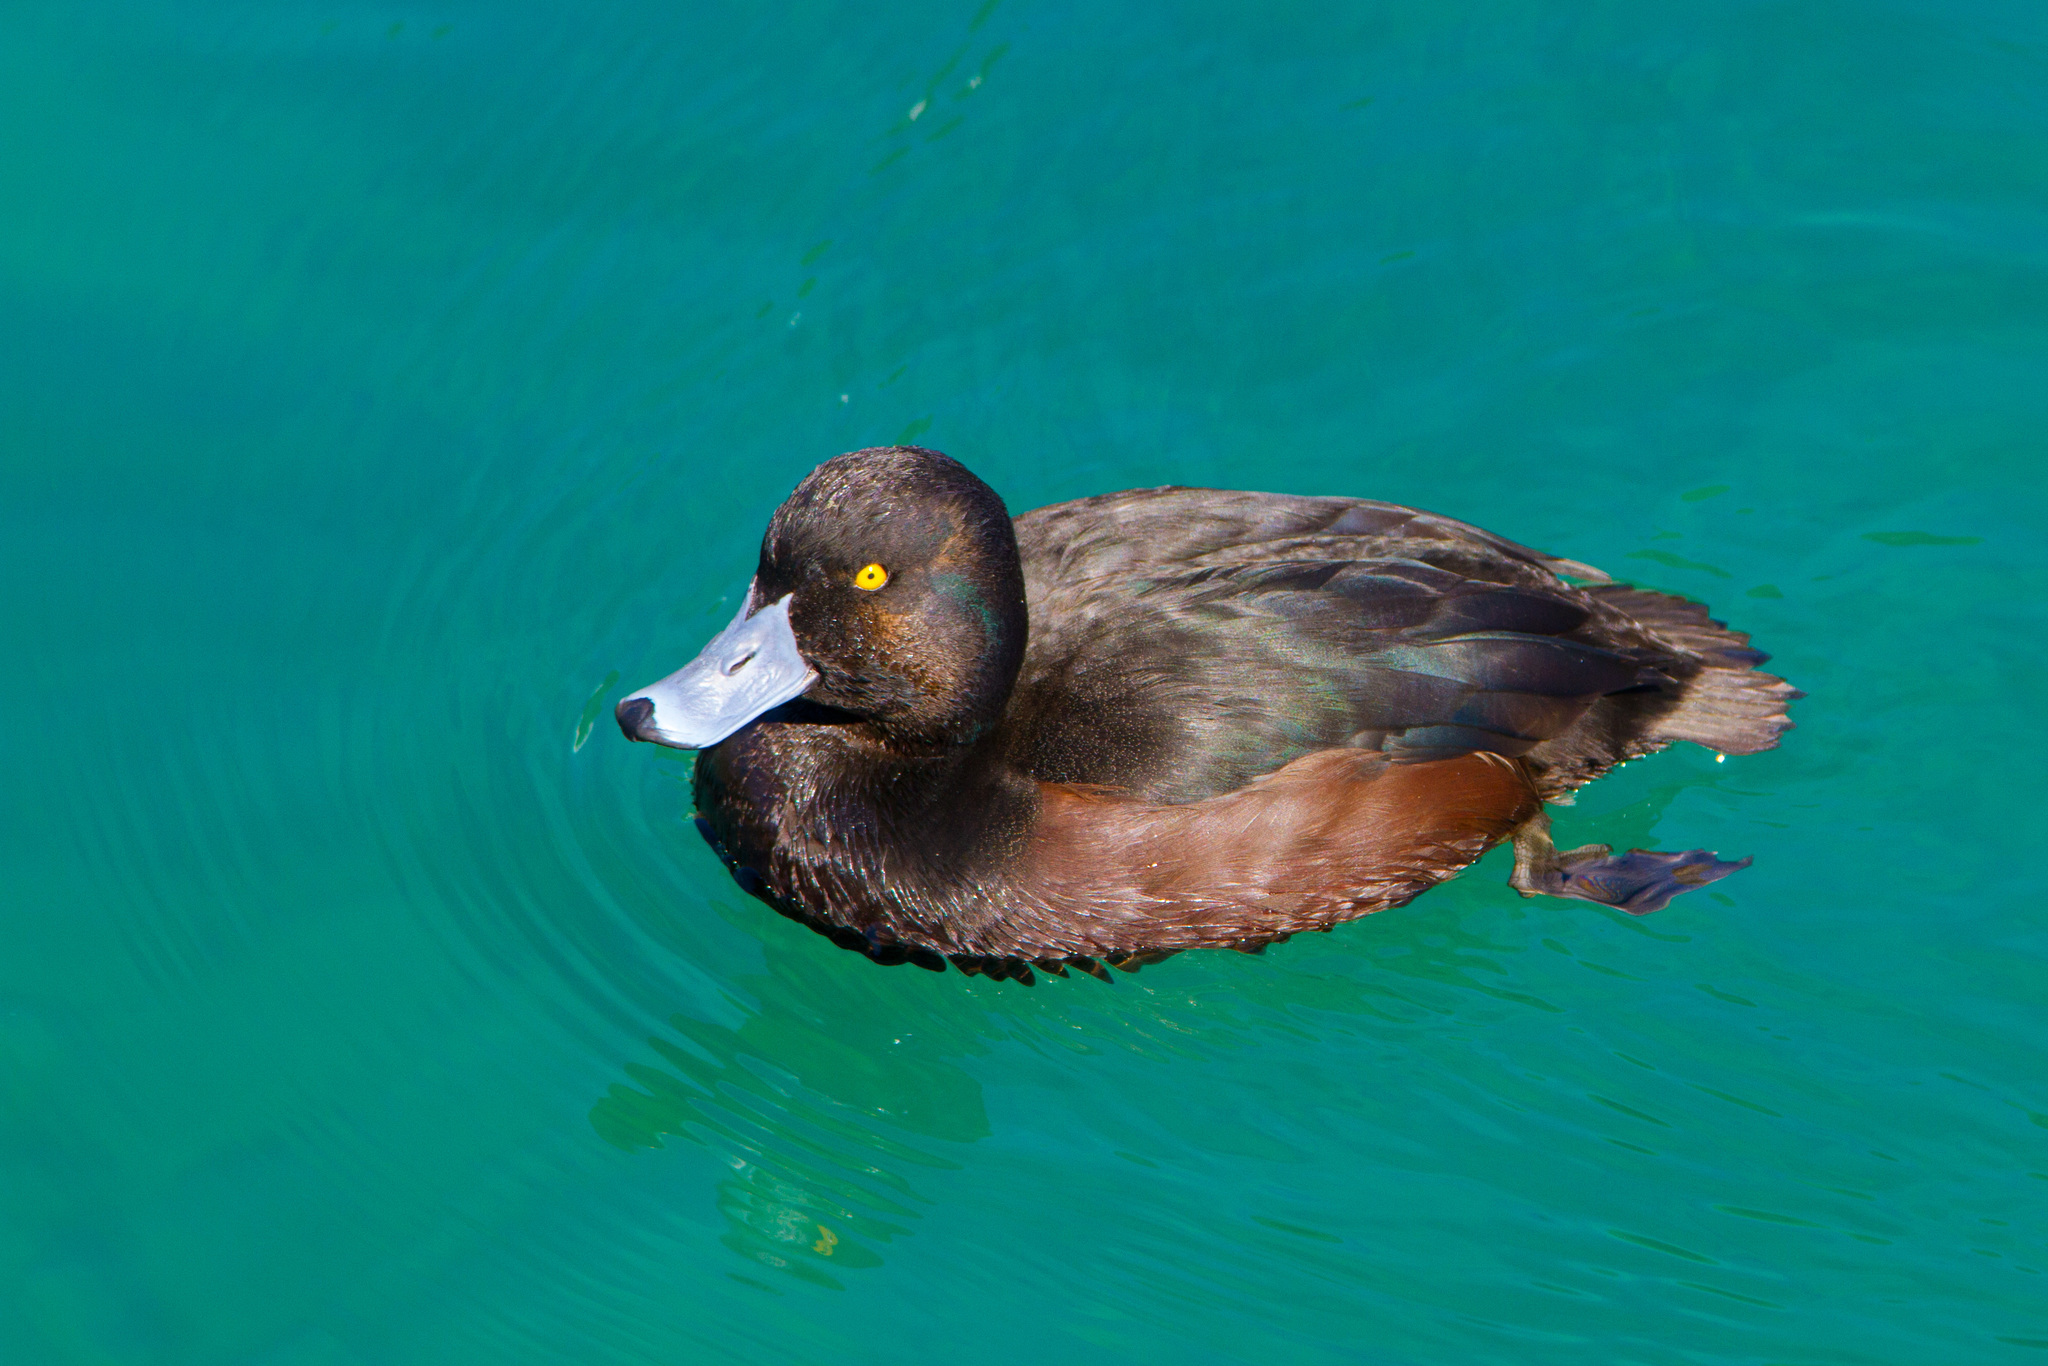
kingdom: Animalia
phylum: Chordata
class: Aves
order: Anseriformes
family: Anatidae
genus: Aythya
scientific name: Aythya novaeseelandiae
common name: New zealand scaup
